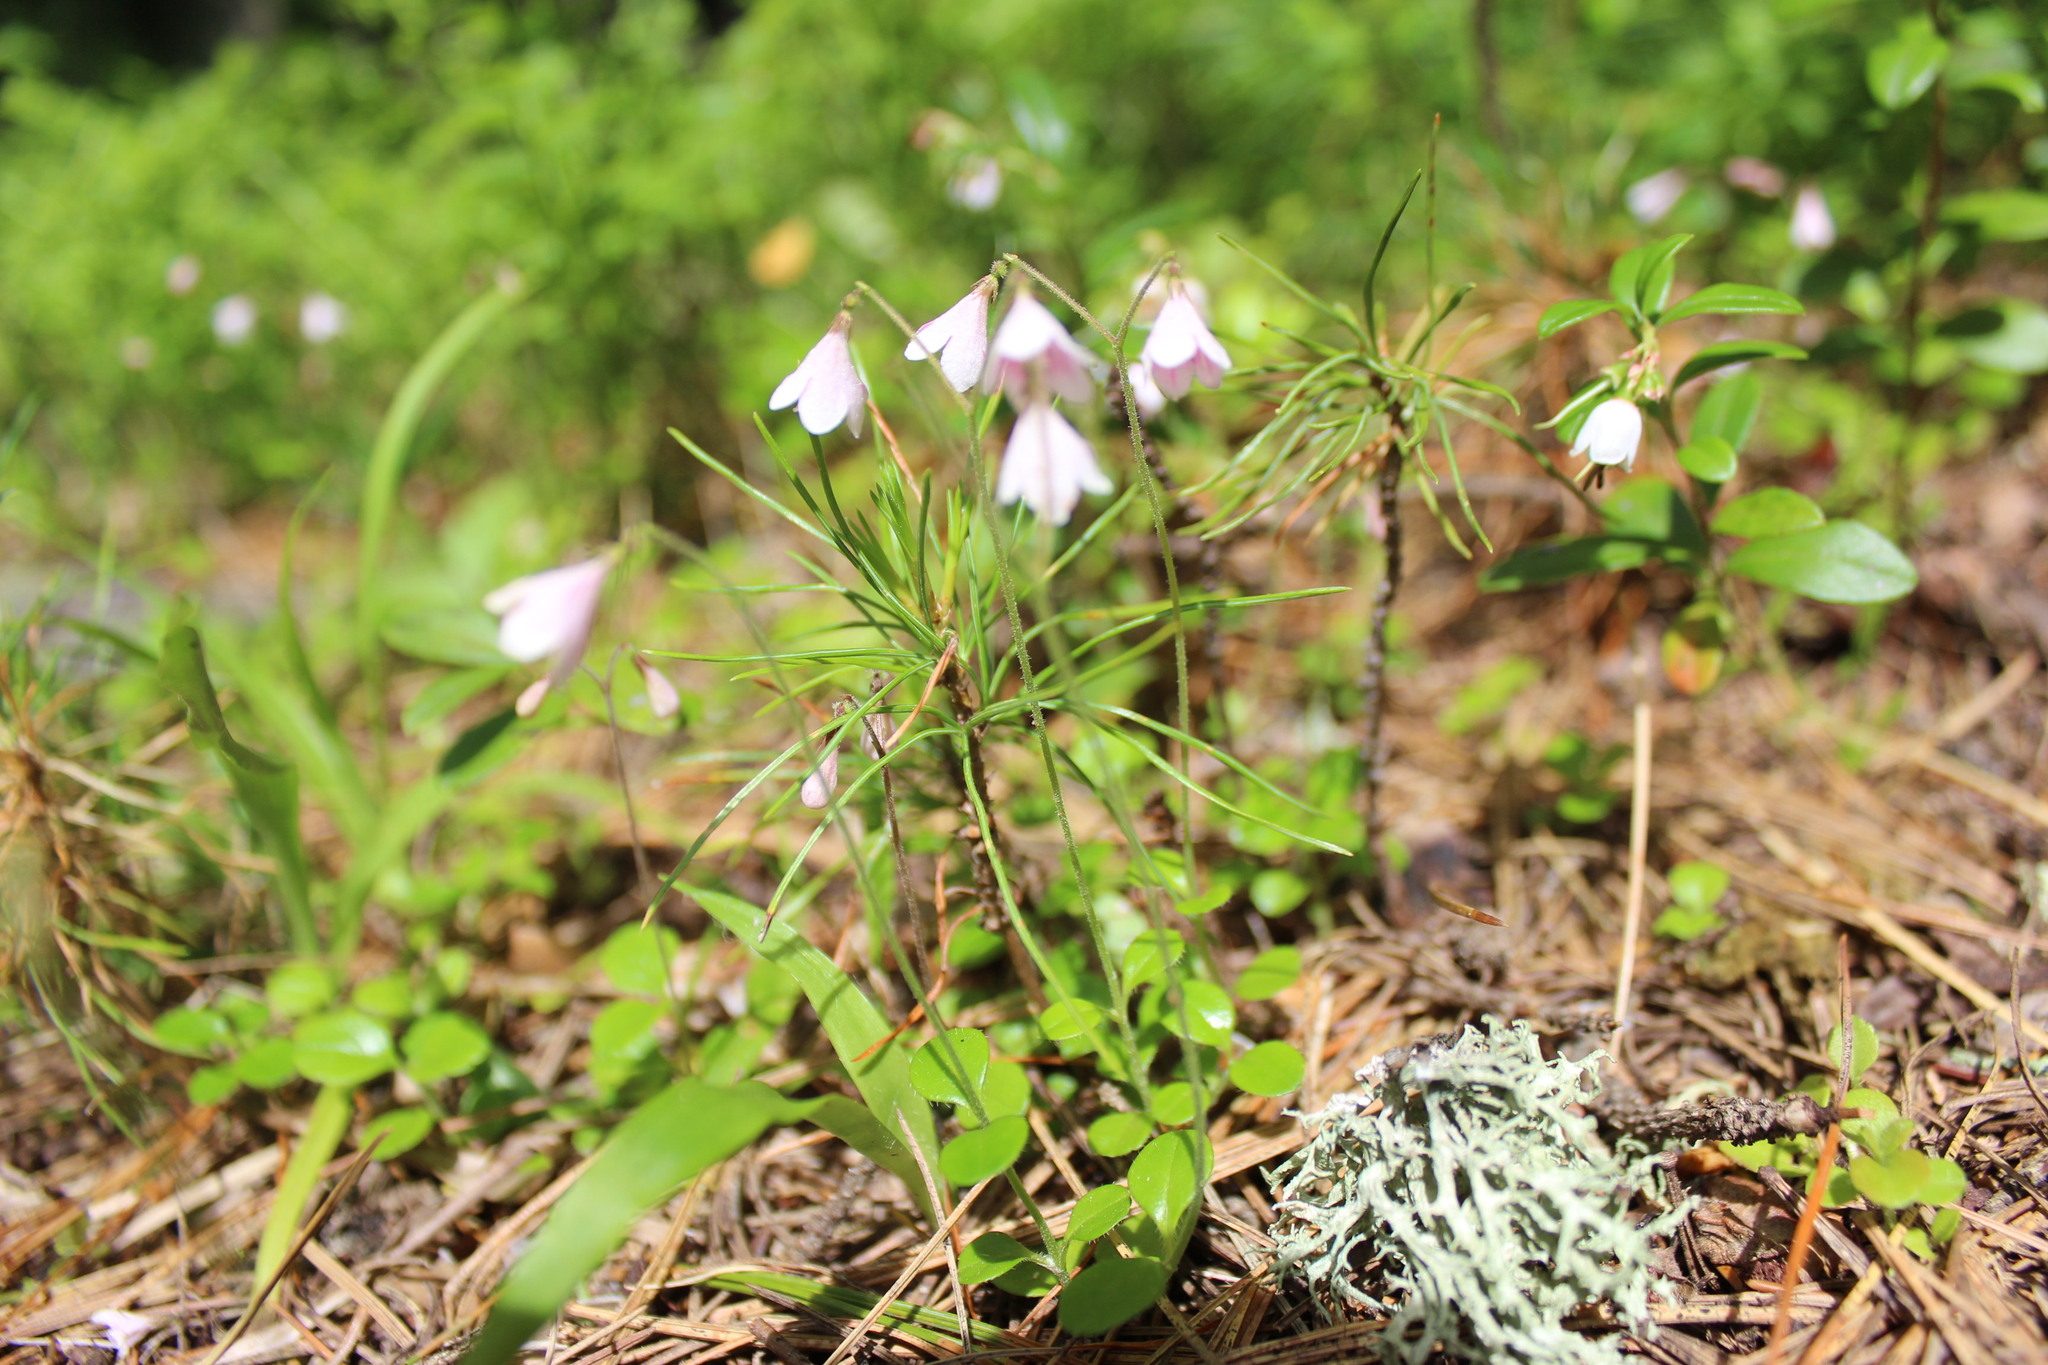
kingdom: Plantae
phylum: Tracheophyta
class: Magnoliopsida
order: Dipsacales
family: Caprifoliaceae
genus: Linnaea
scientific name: Linnaea borealis
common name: Twinflower
